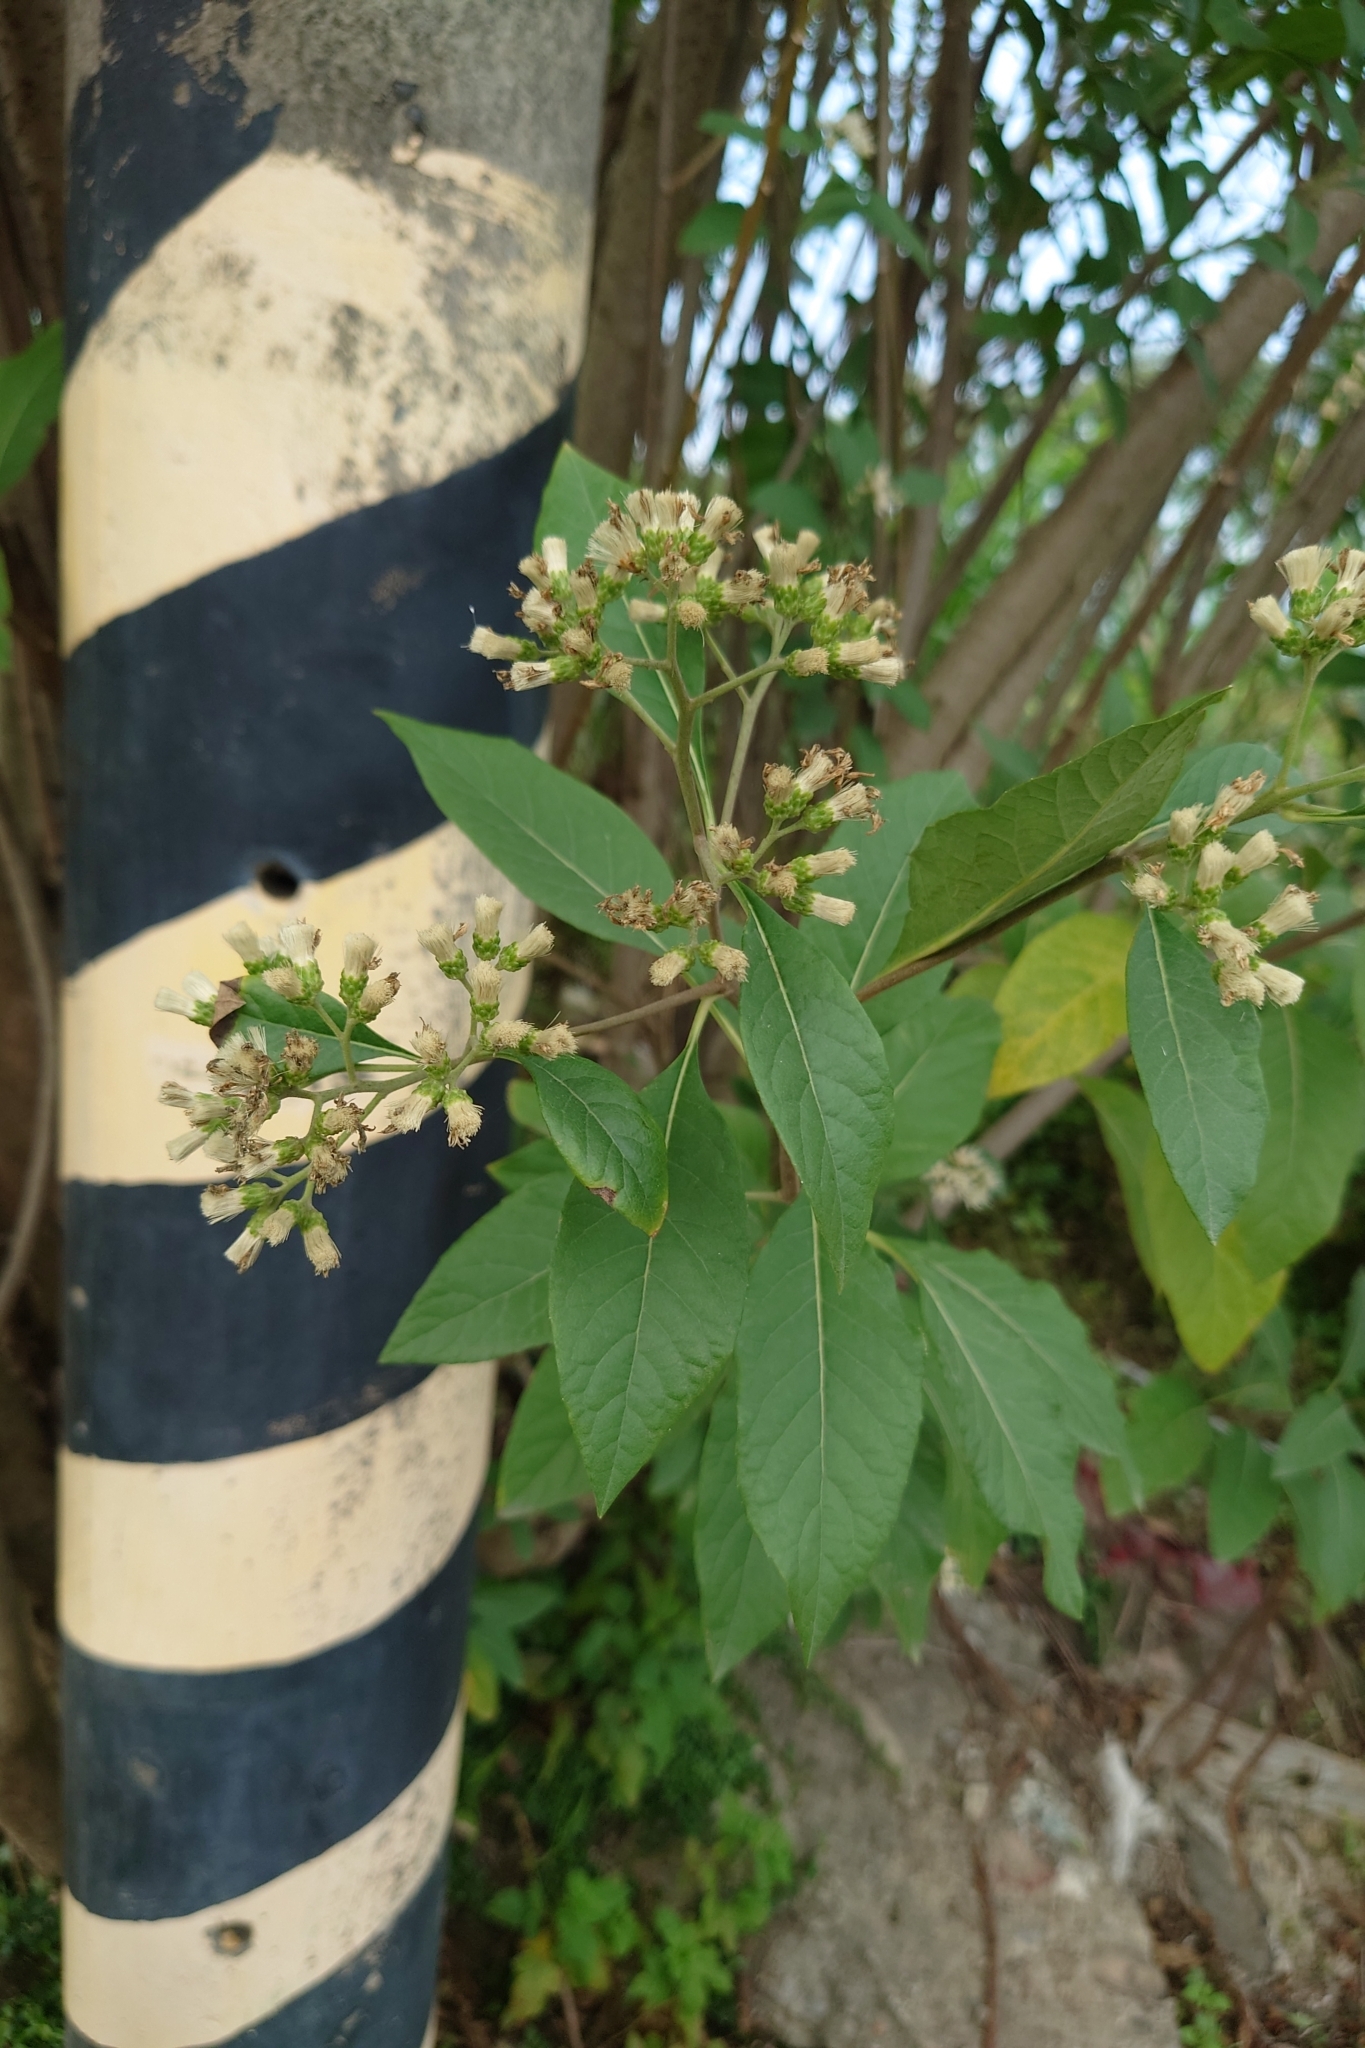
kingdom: Plantae
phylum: Tracheophyta
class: Magnoliopsida
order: Asterales
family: Asteraceae
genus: Gymnanthemum
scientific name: Gymnanthemum amygdalinum
